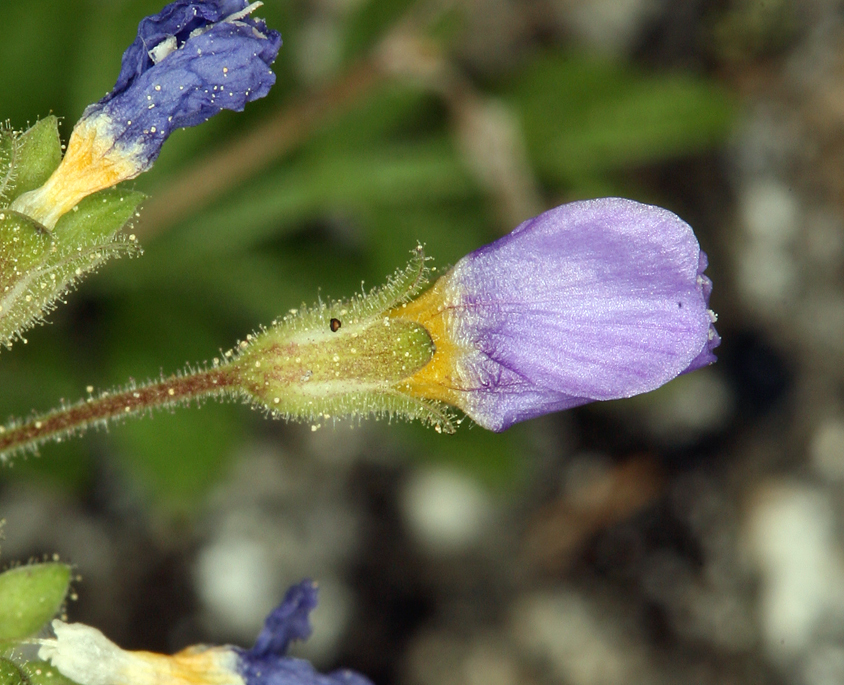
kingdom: Plantae
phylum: Tracheophyta
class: Magnoliopsida
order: Ericales
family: Polemoniaceae
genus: Polemonium
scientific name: Polemonium pulcherrimum
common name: Short jacob's-ladder
